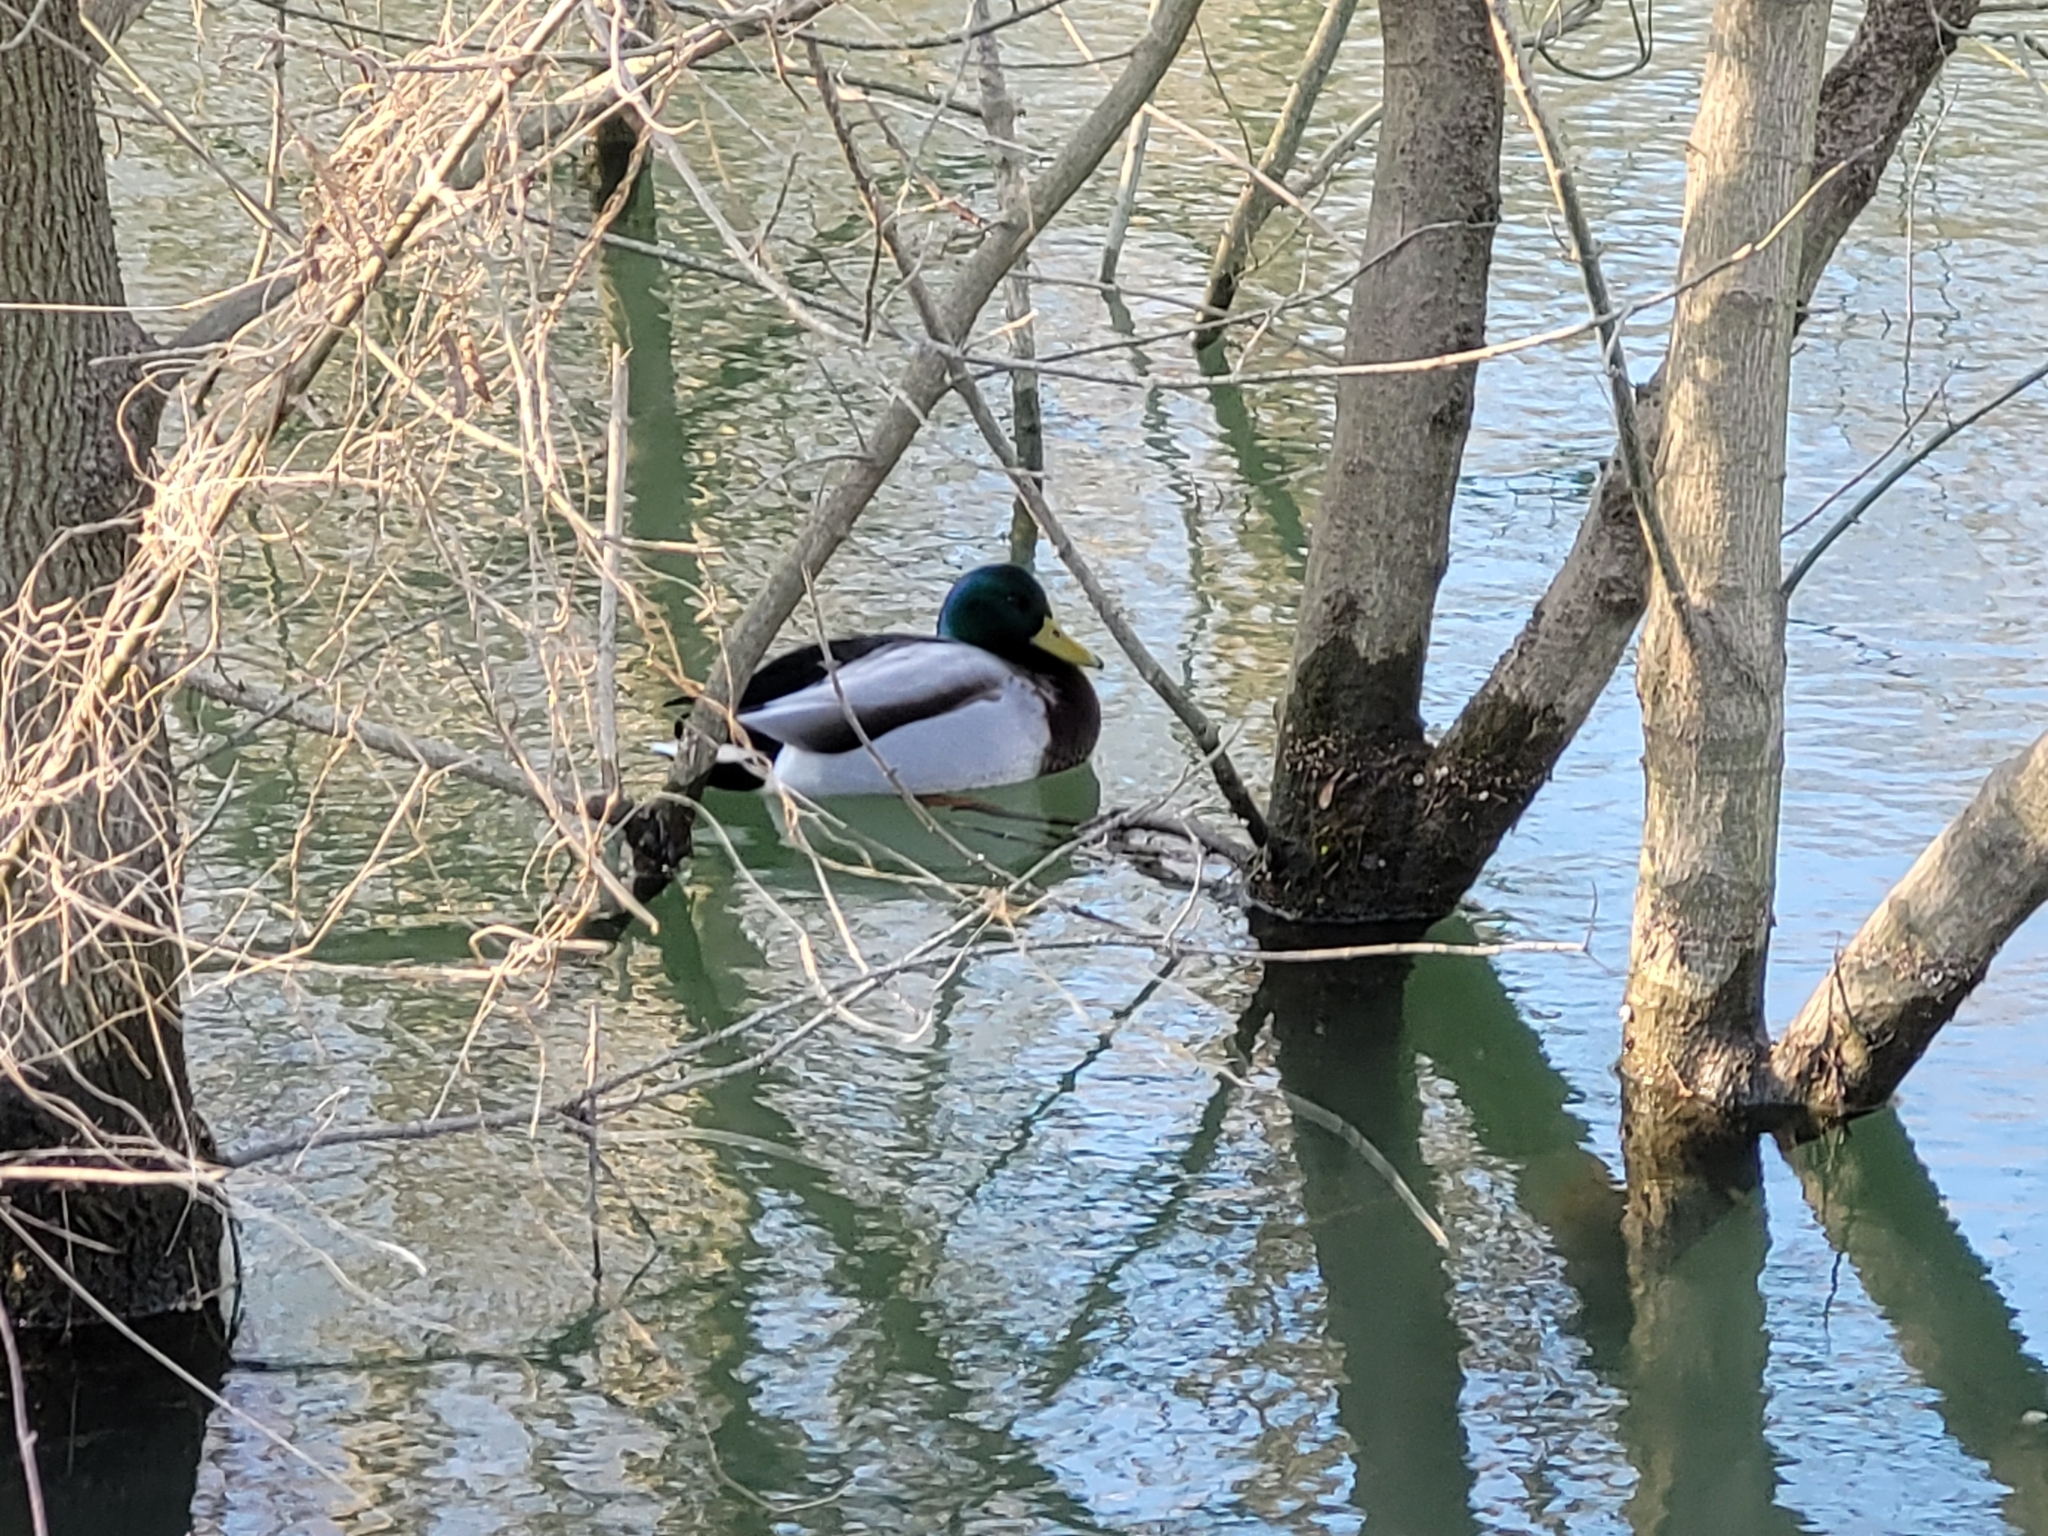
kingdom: Animalia
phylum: Chordata
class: Aves
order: Anseriformes
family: Anatidae
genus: Anas
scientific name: Anas platyrhynchos
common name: Mallard
